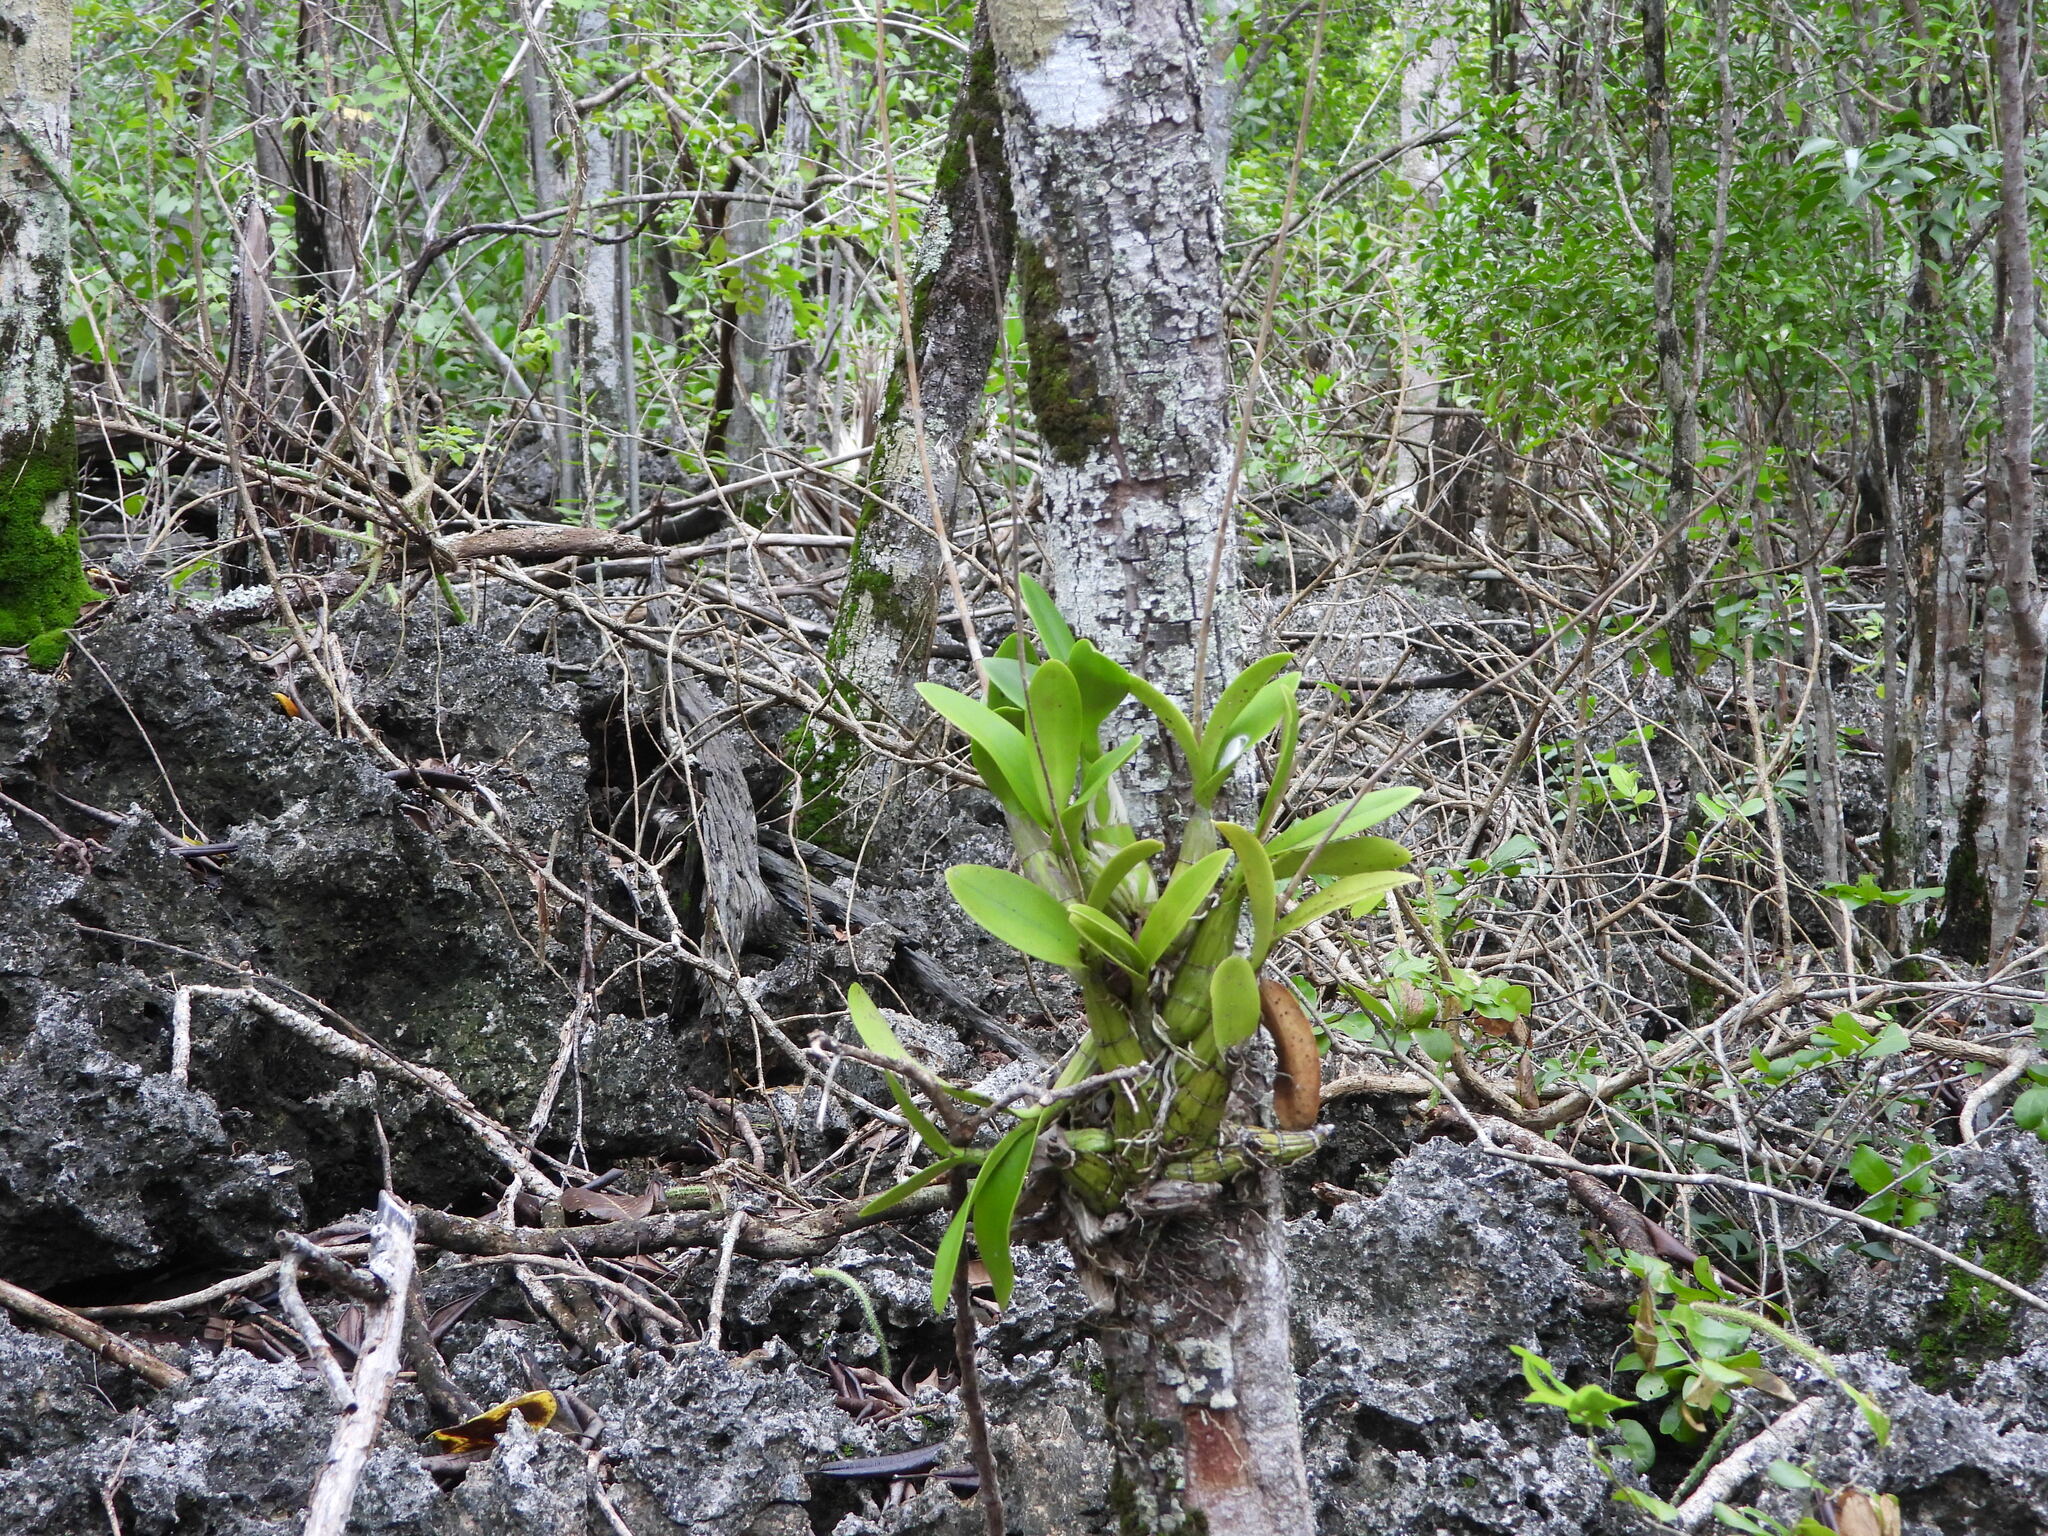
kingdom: Plantae
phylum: Tracheophyta
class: Liliopsida
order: Asparagales
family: Orchidaceae
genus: Myrmecophila
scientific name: Myrmecophila thomsoniana
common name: Banana orchid
